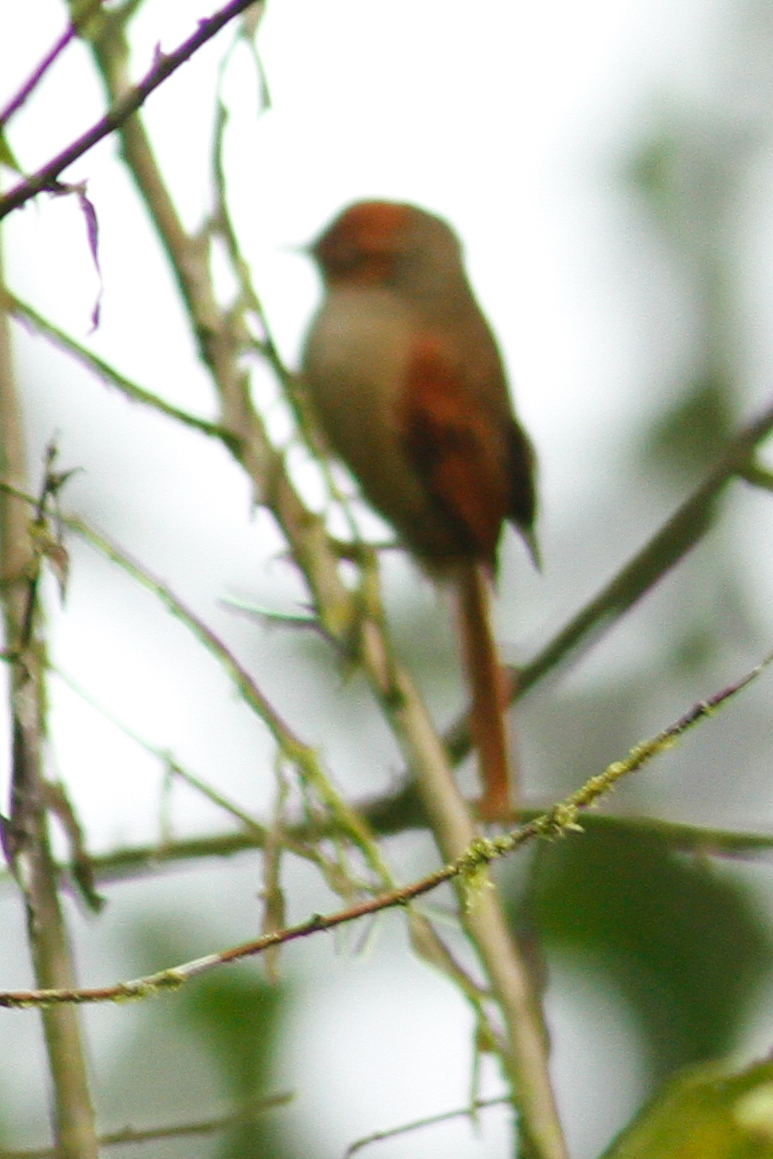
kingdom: Animalia
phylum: Chordata
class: Aves
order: Passeriformes
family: Furnariidae
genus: Cranioleuca
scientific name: Cranioleuca erythrops
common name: Red-faced spinetail
